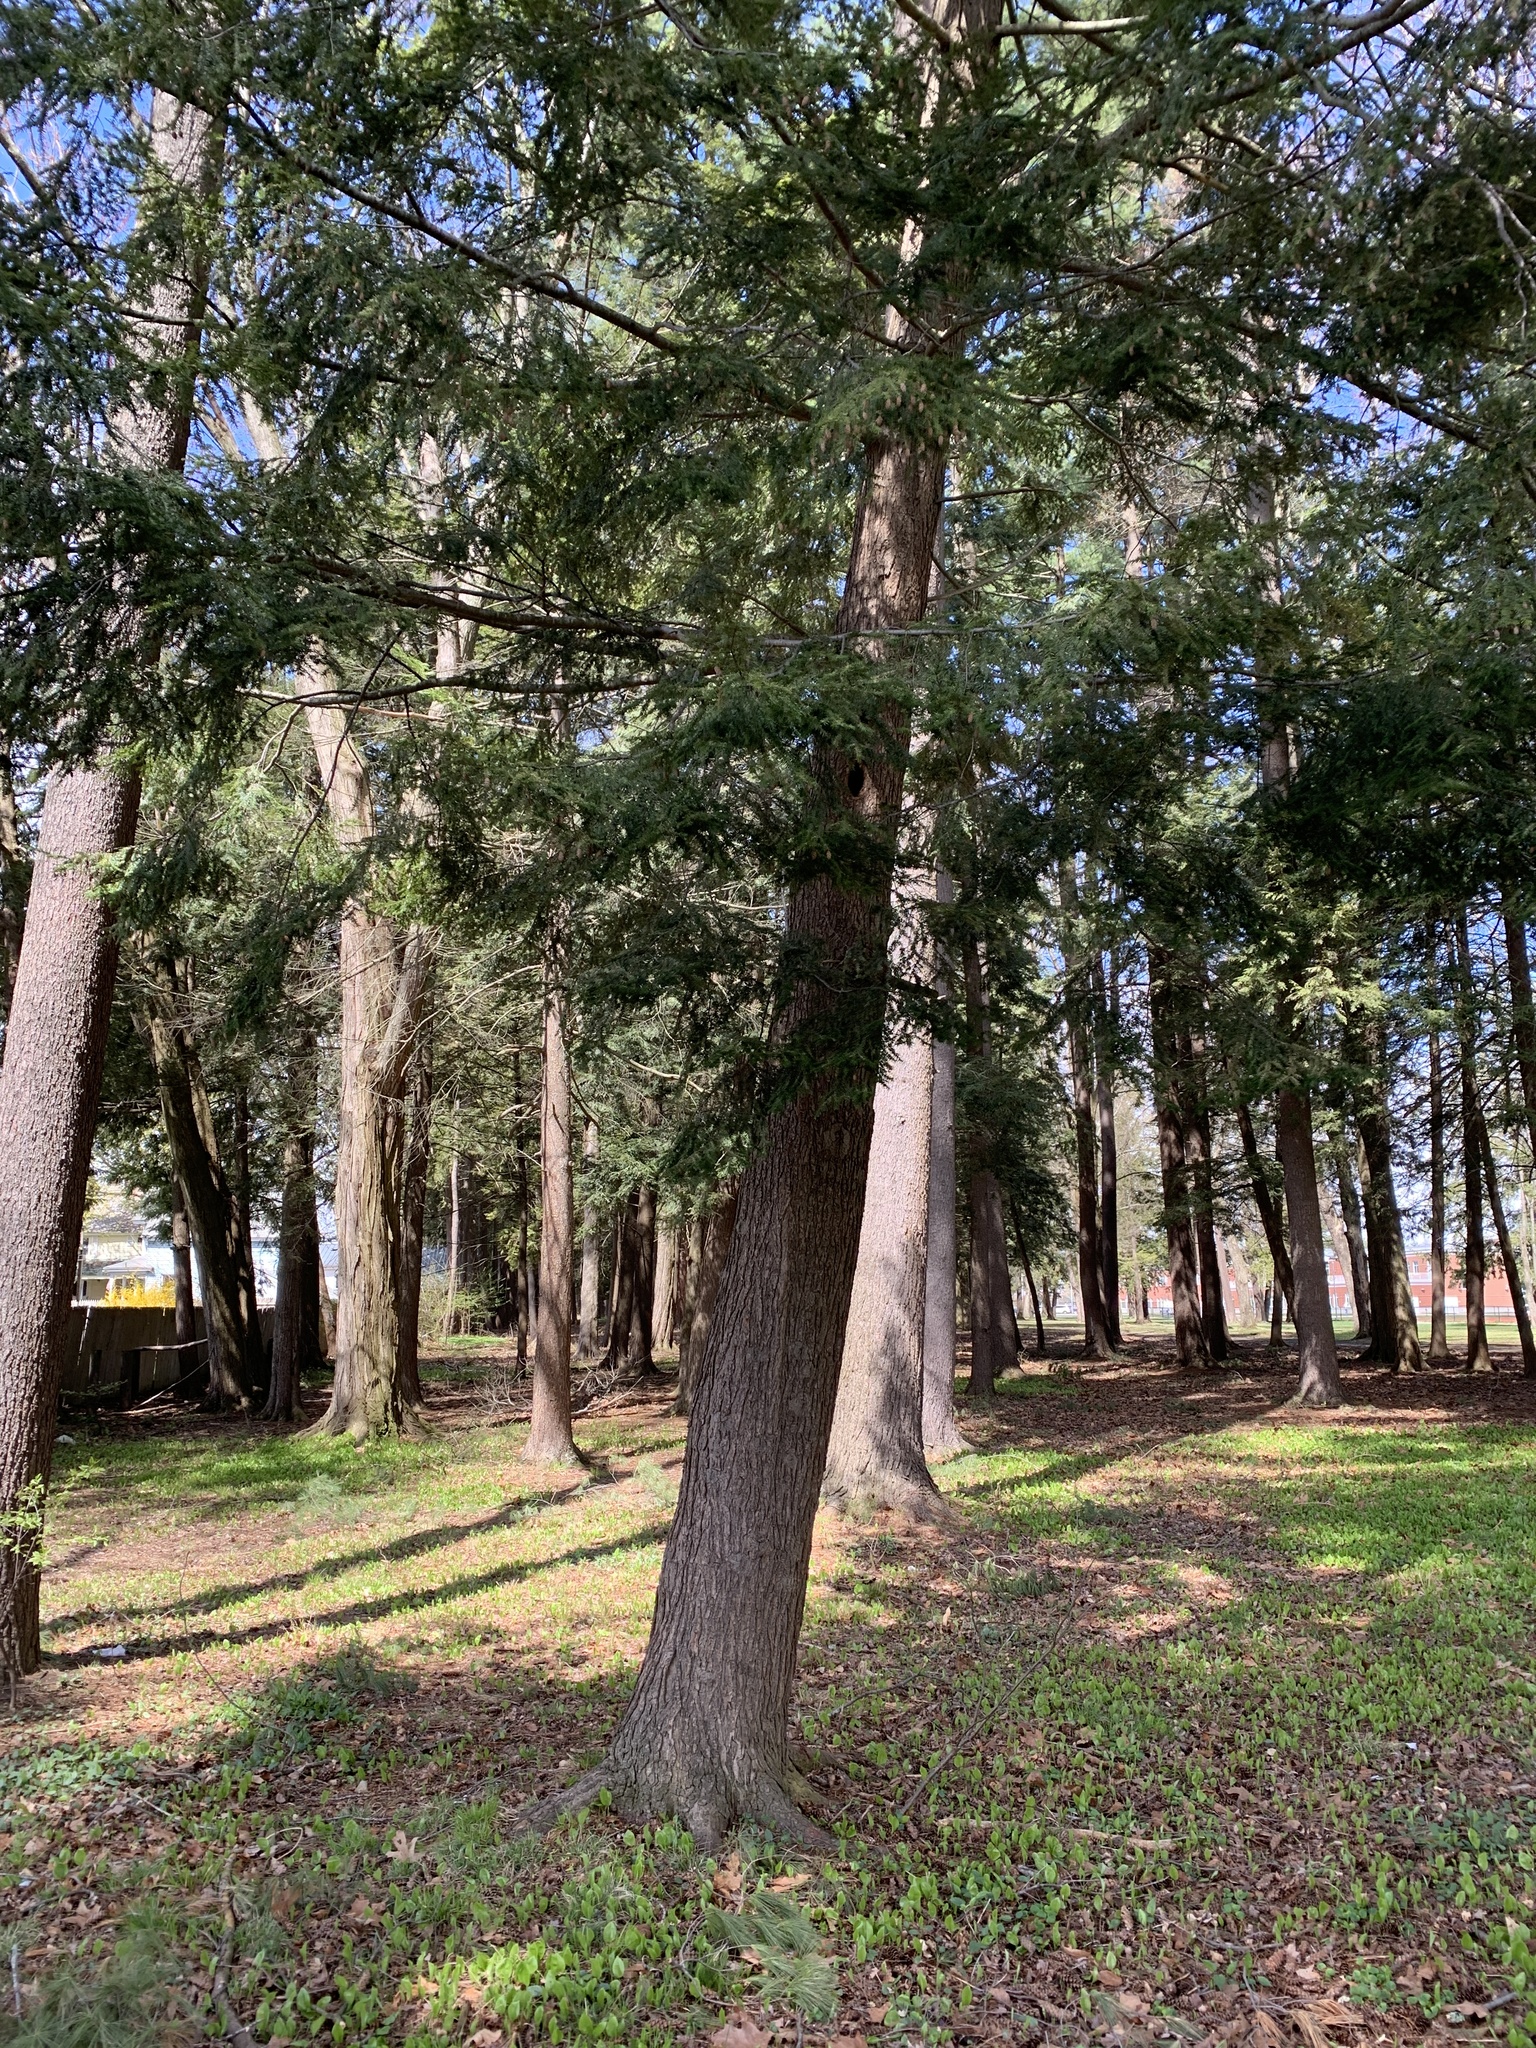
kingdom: Plantae
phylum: Tracheophyta
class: Pinopsida
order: Pinales
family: Pinaceae
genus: Tsuga
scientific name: Tsuga canadensis
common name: Eastern hemlock
